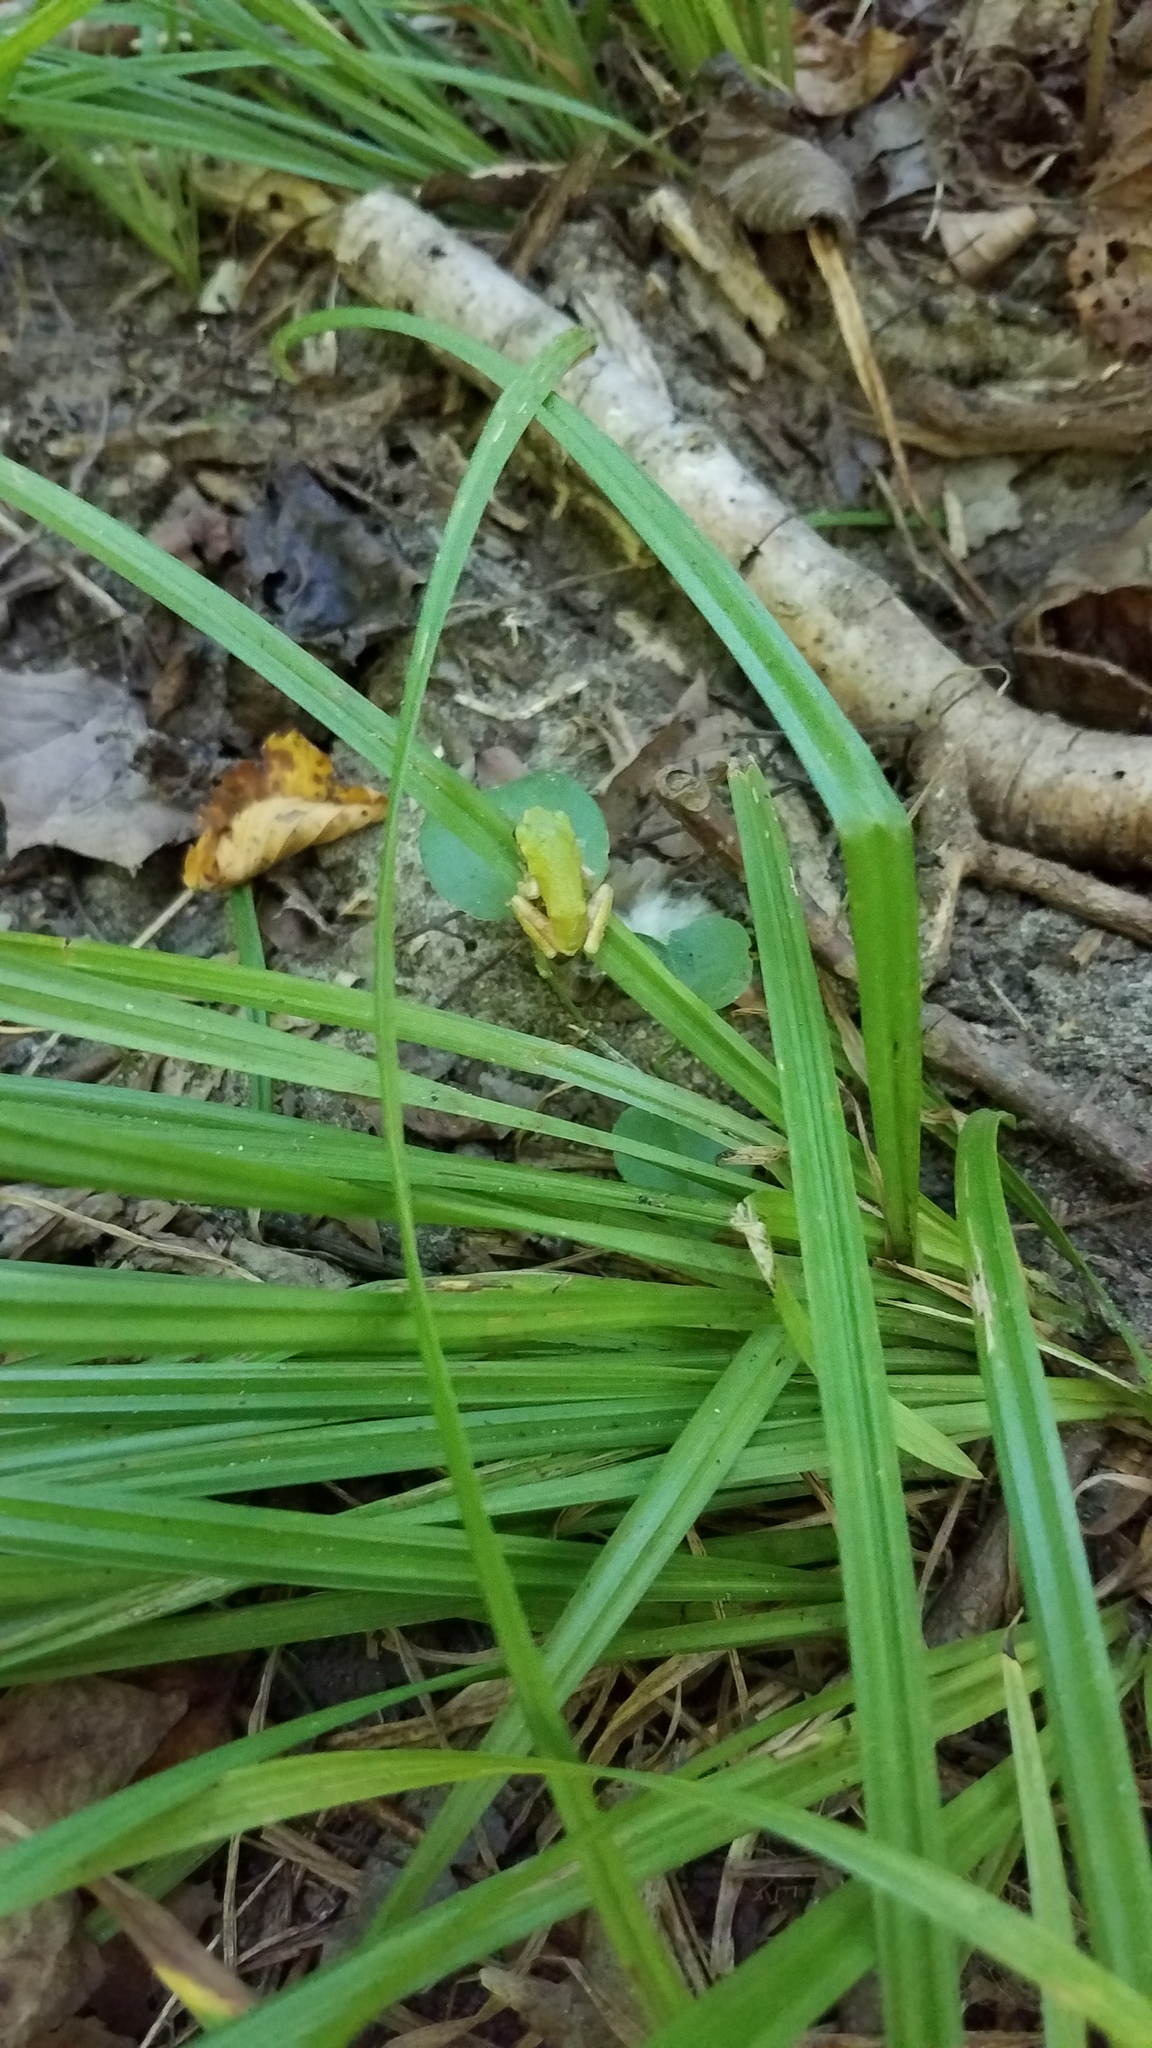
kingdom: Animalia
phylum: Chordata
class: Amphibia
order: Anura
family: Hylidae
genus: Dryophytes
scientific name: Dryophytes chrysoscelis
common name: Cope's gray treefrog
